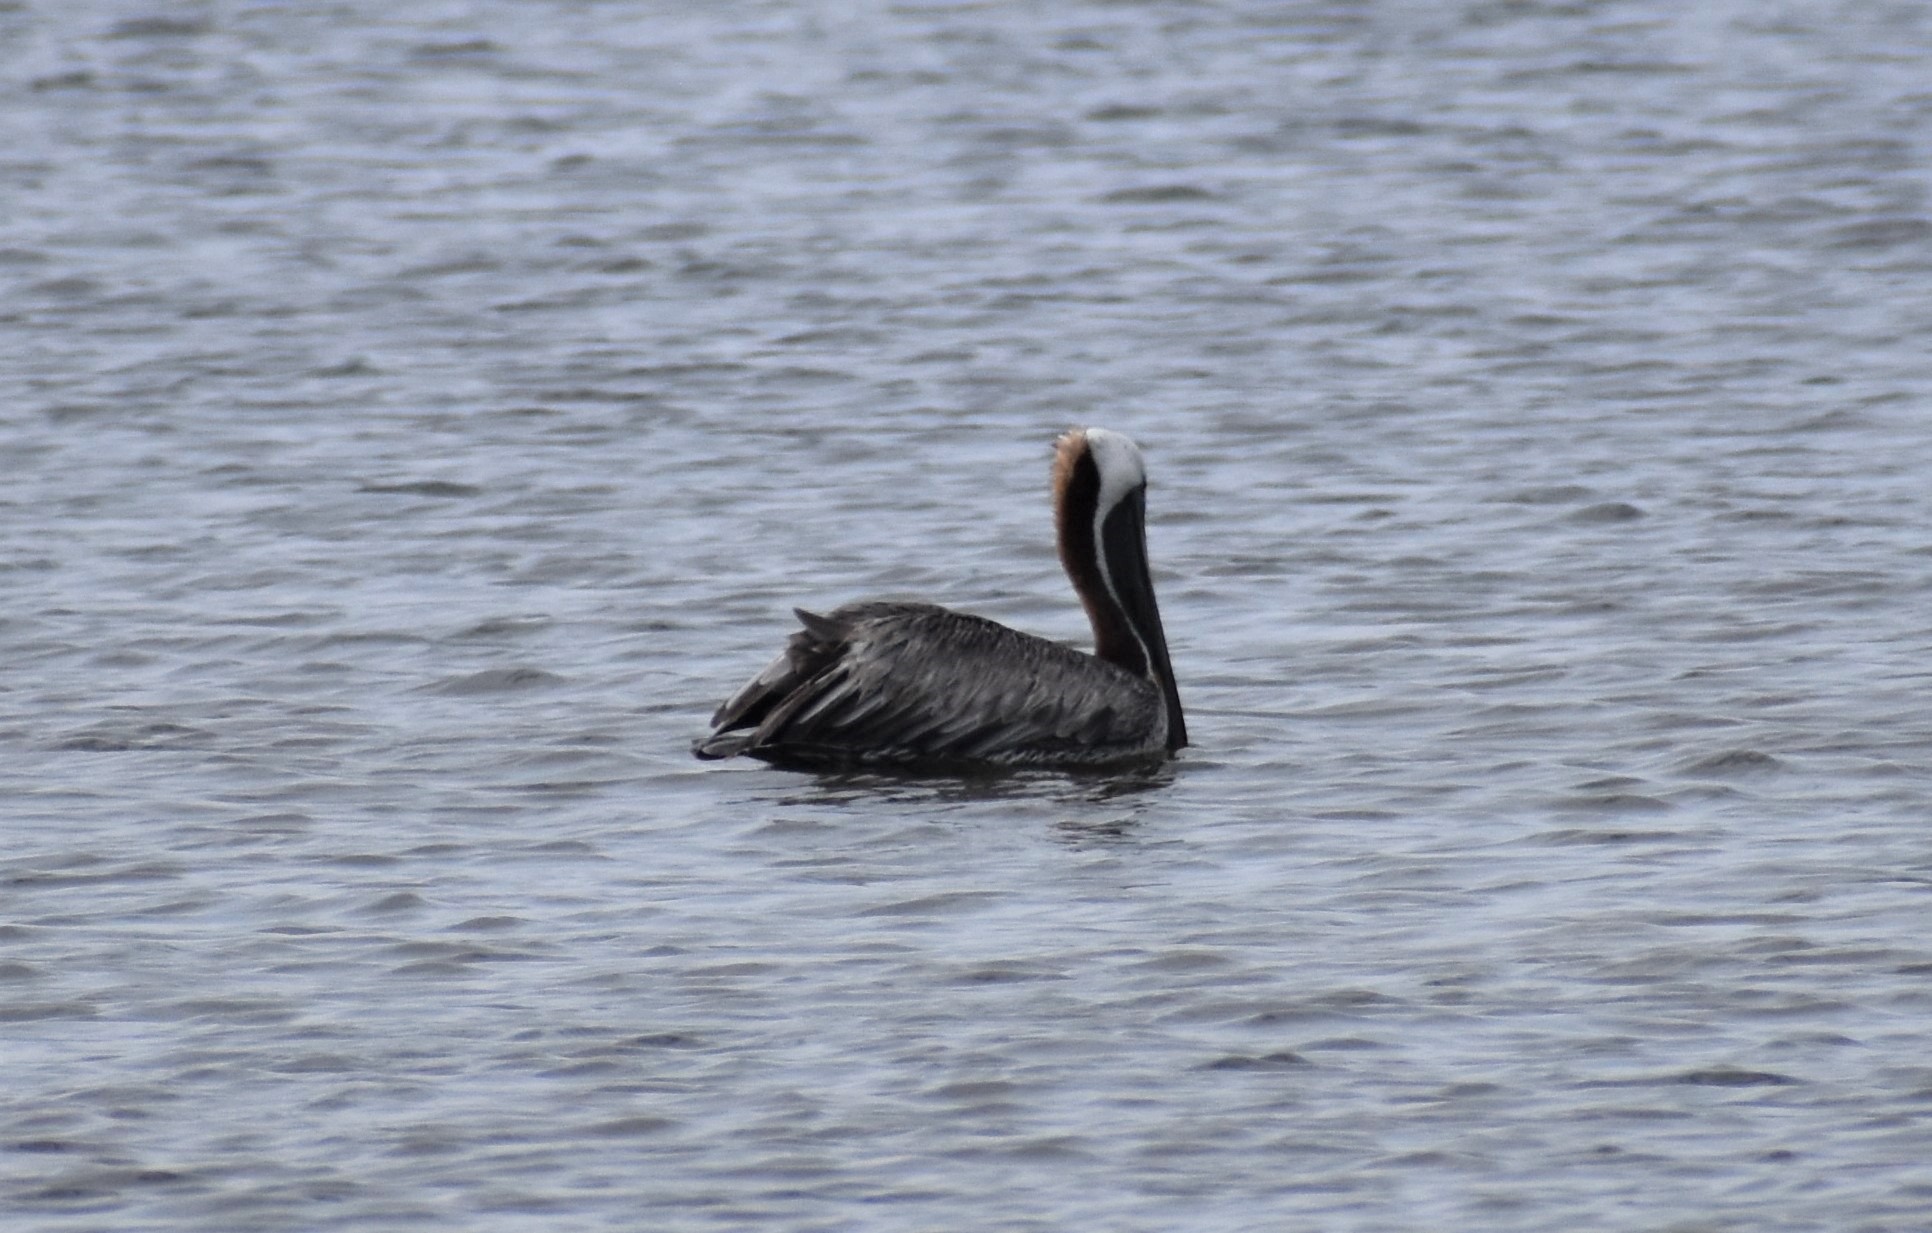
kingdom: Animalia
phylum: Chordata
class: Aves
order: Pelecaniformes
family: Pelecanidae
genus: Pelecanus
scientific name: Pelecanus occidentalis
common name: Brown pelican
